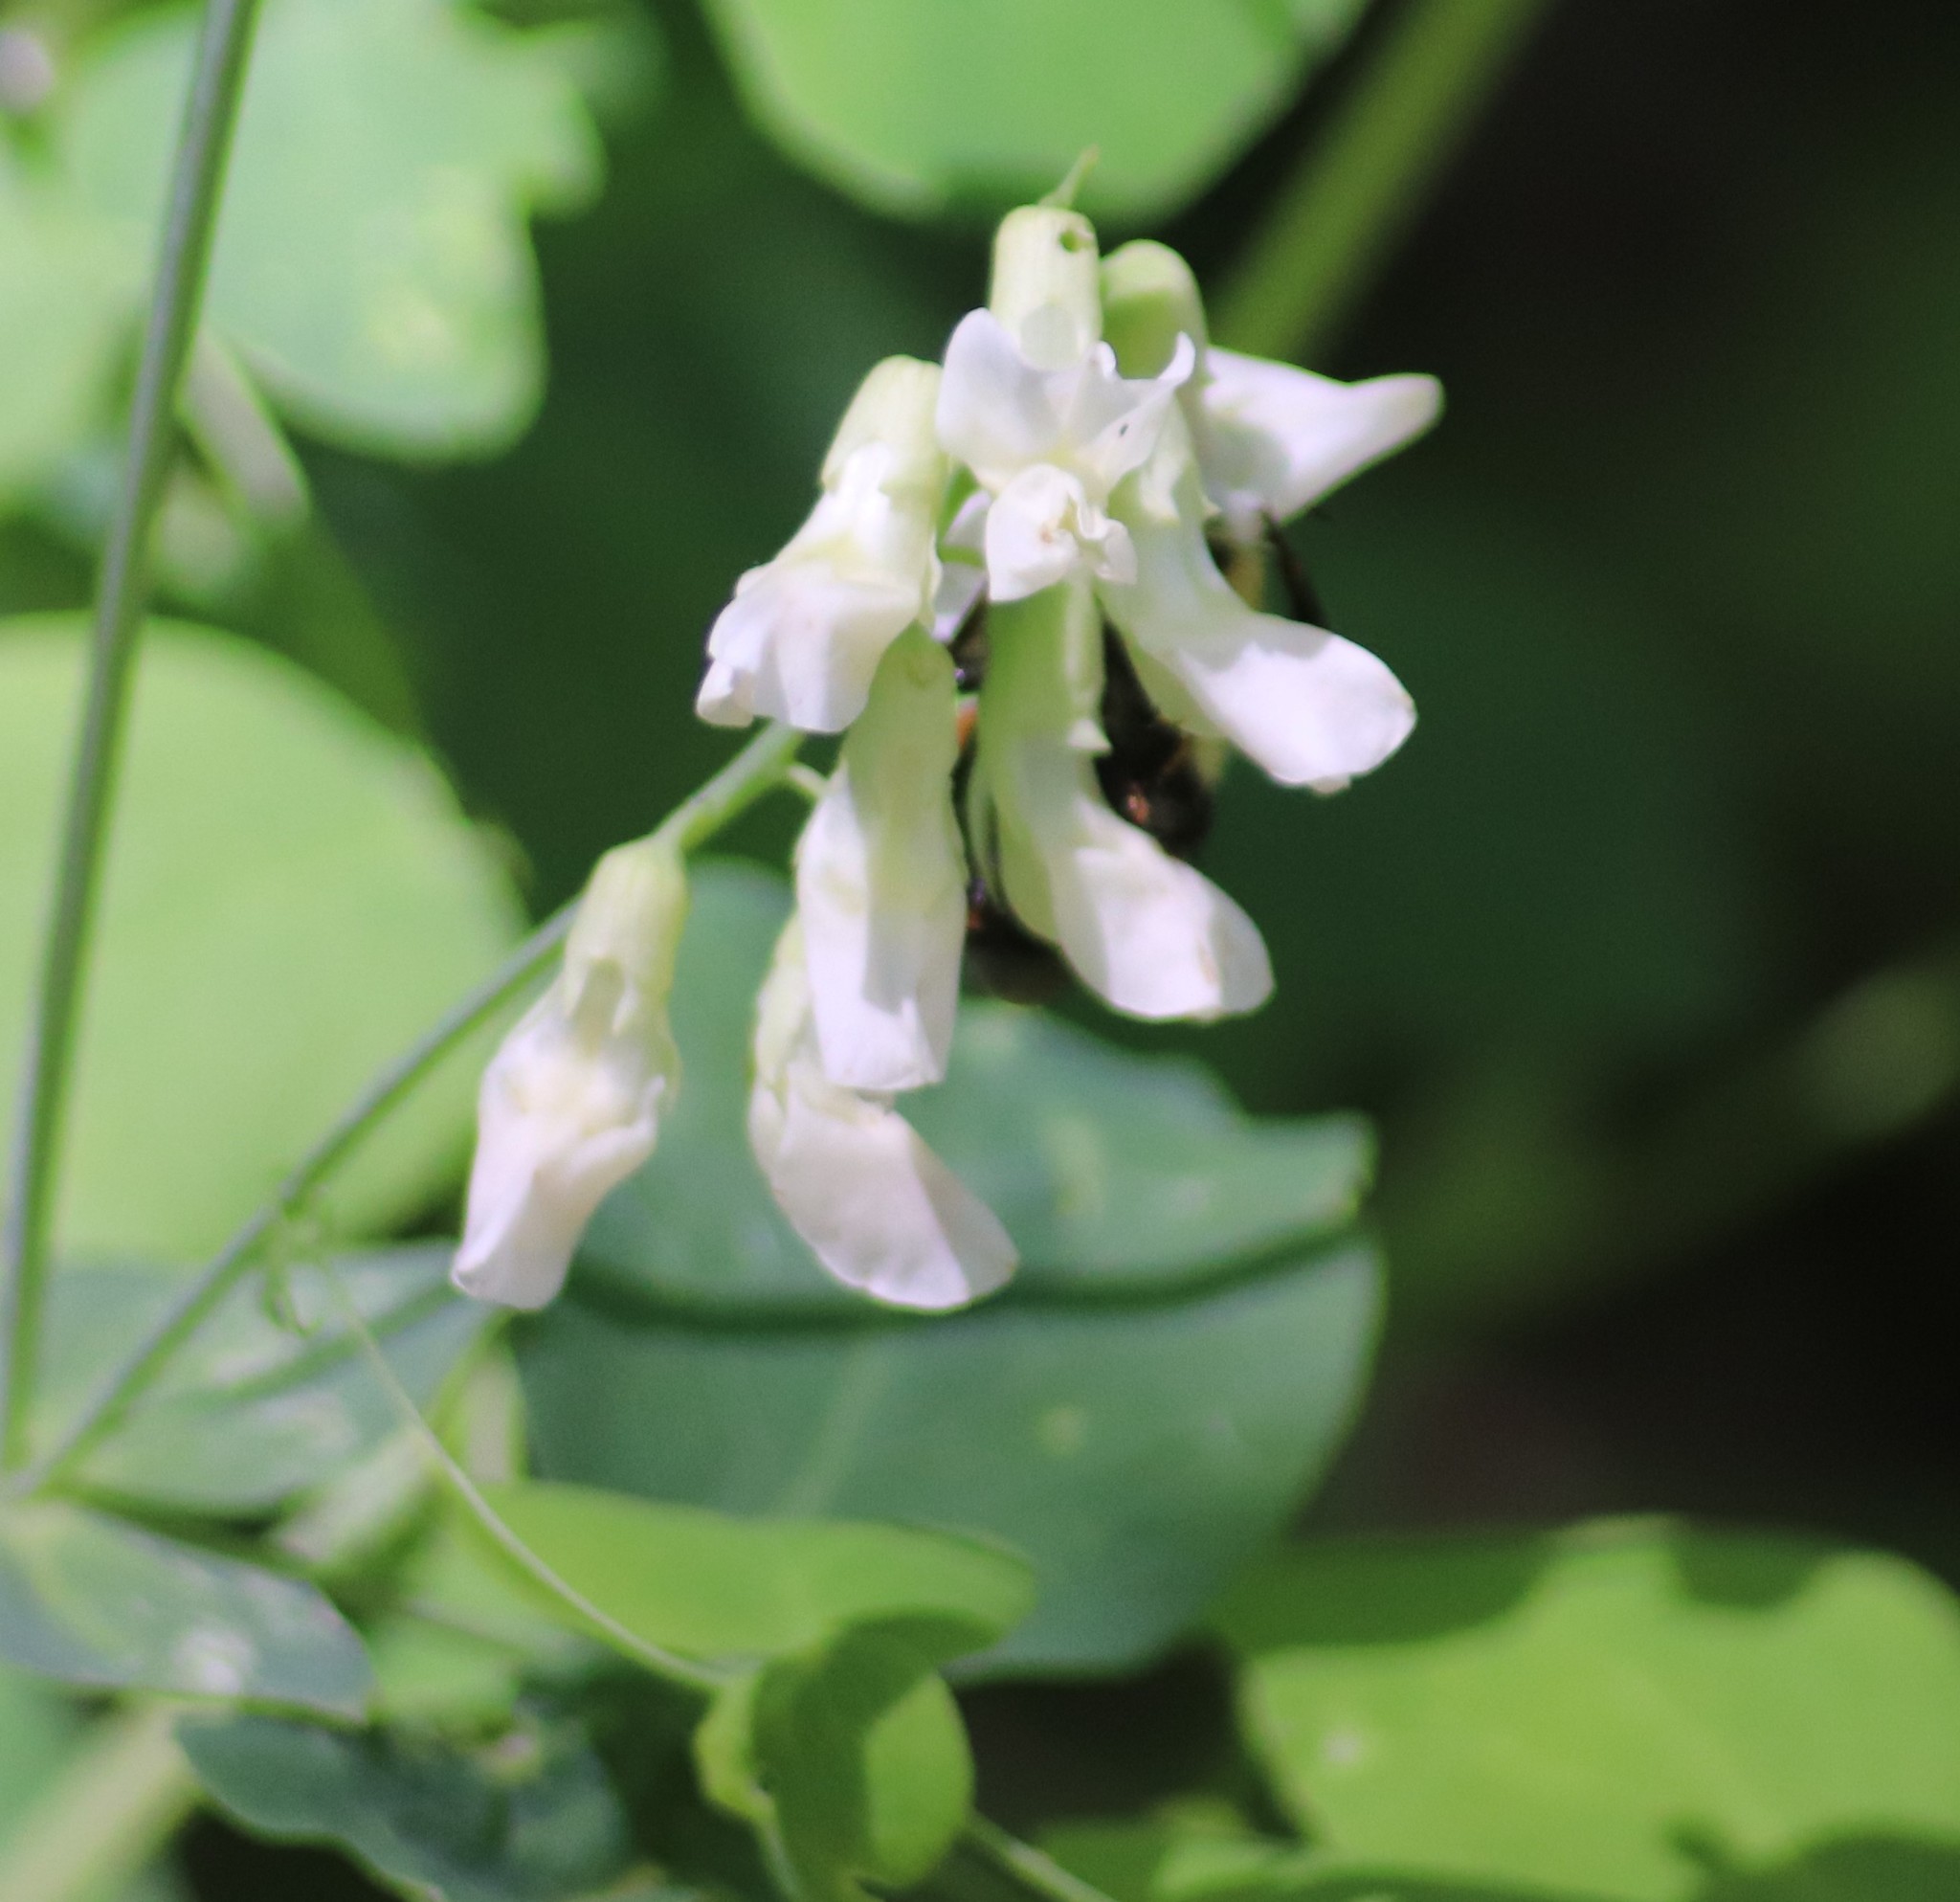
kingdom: Plantae
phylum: Tracheophyta
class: Magnoliopsida
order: Fabales
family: Fabaceae
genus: Lathyrus
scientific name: Lathyrus ochroleucus
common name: Pale vetchling
